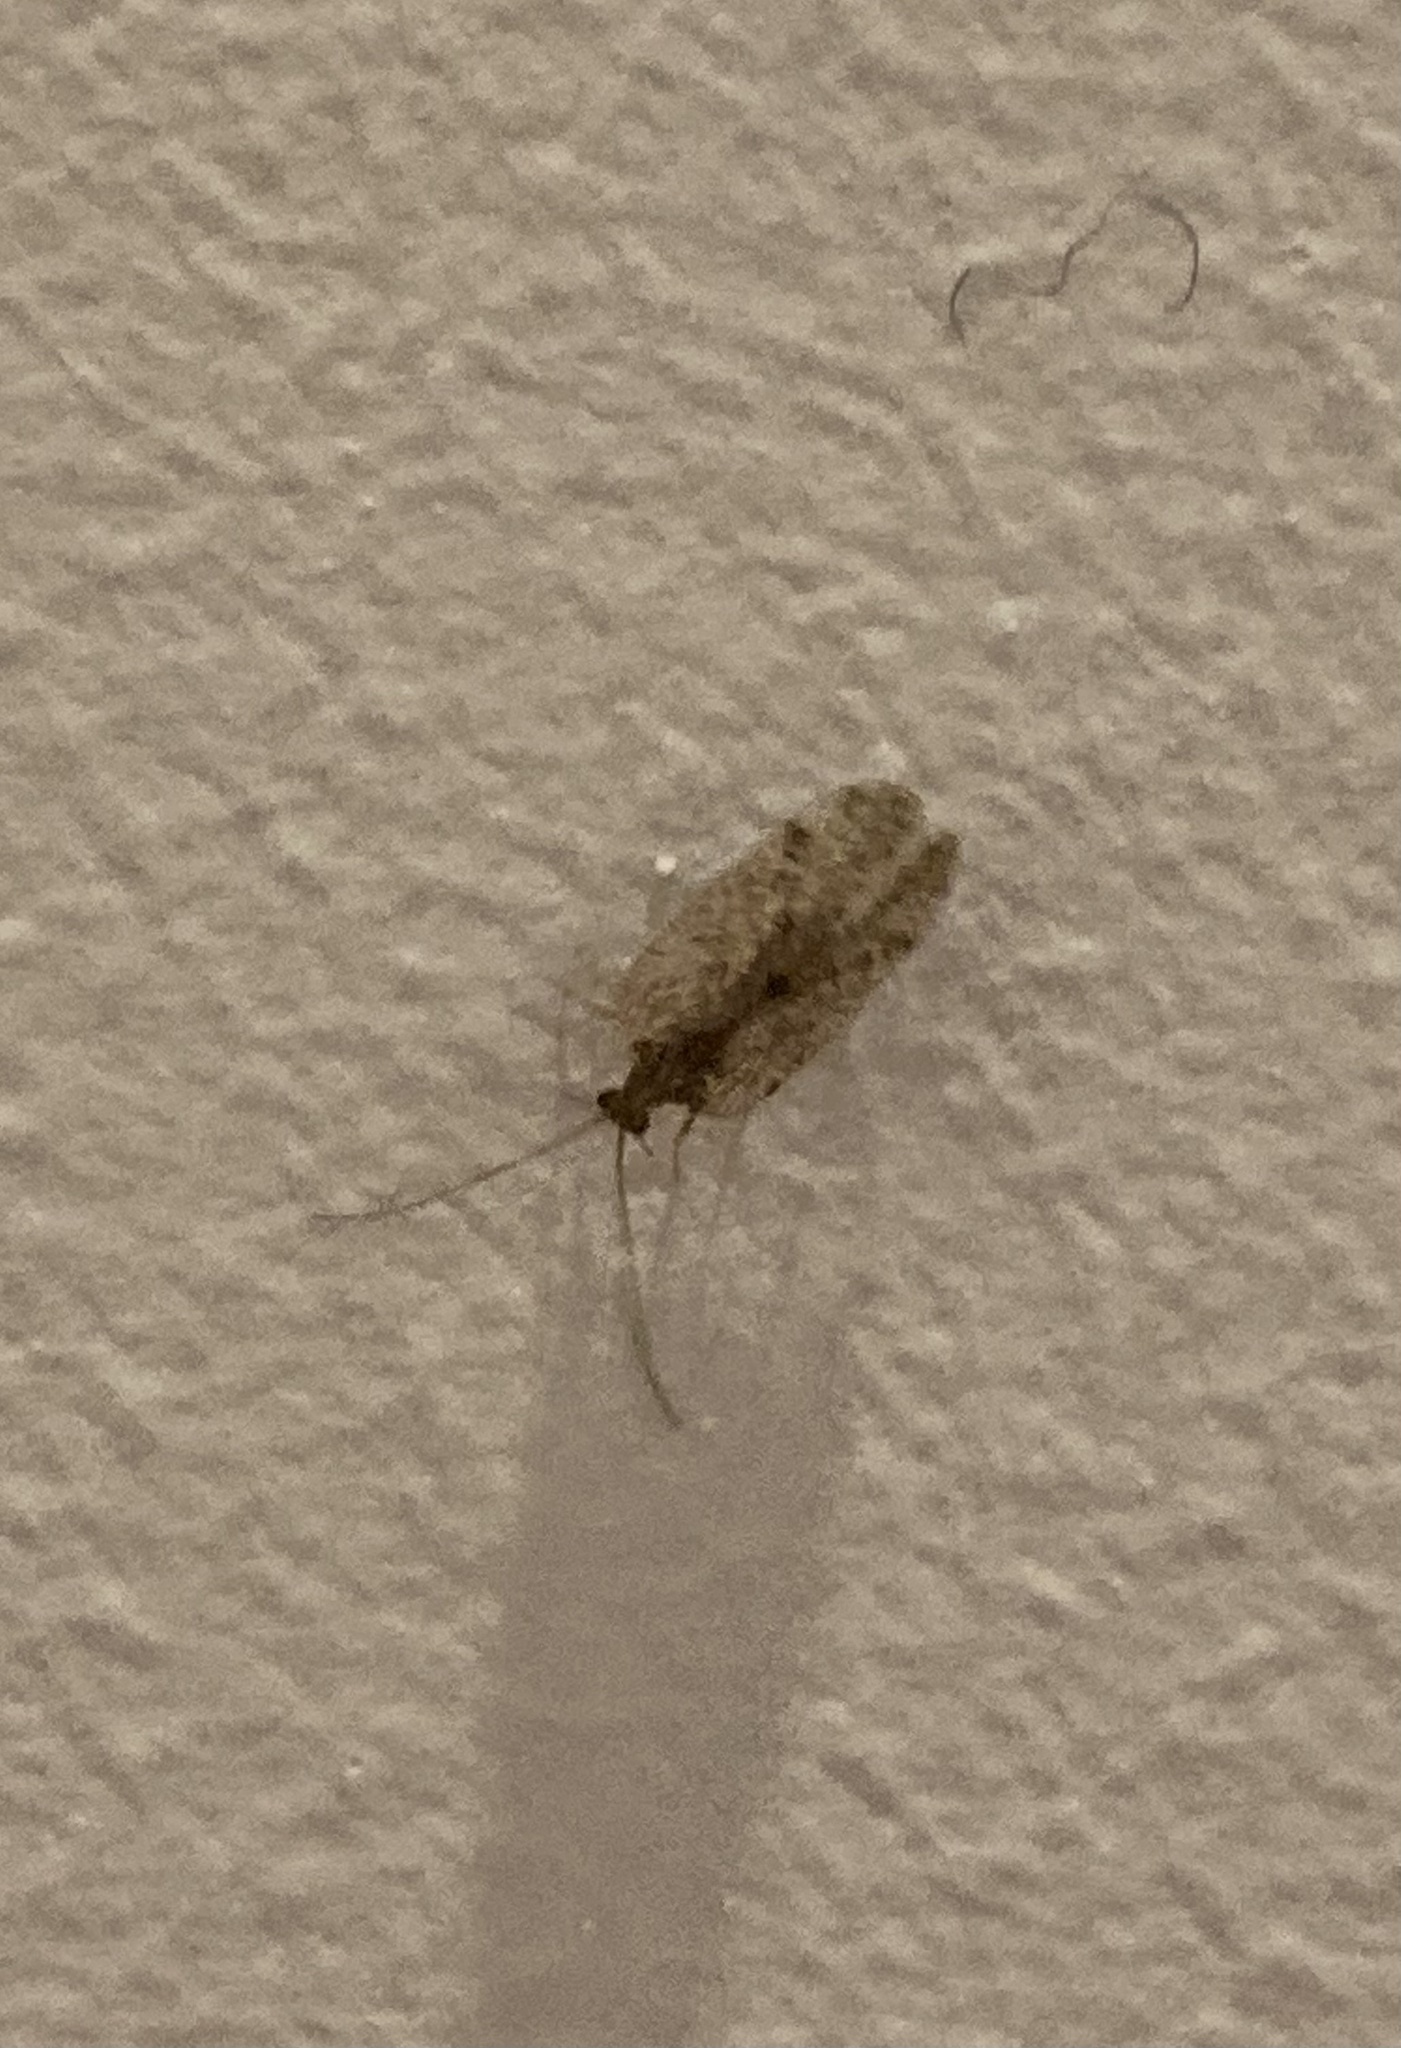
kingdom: Animalia
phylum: Arthropoda
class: Insecta
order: Neuroptera
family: Hemerobiidae
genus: Psectra
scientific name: Psectra nakaharai
